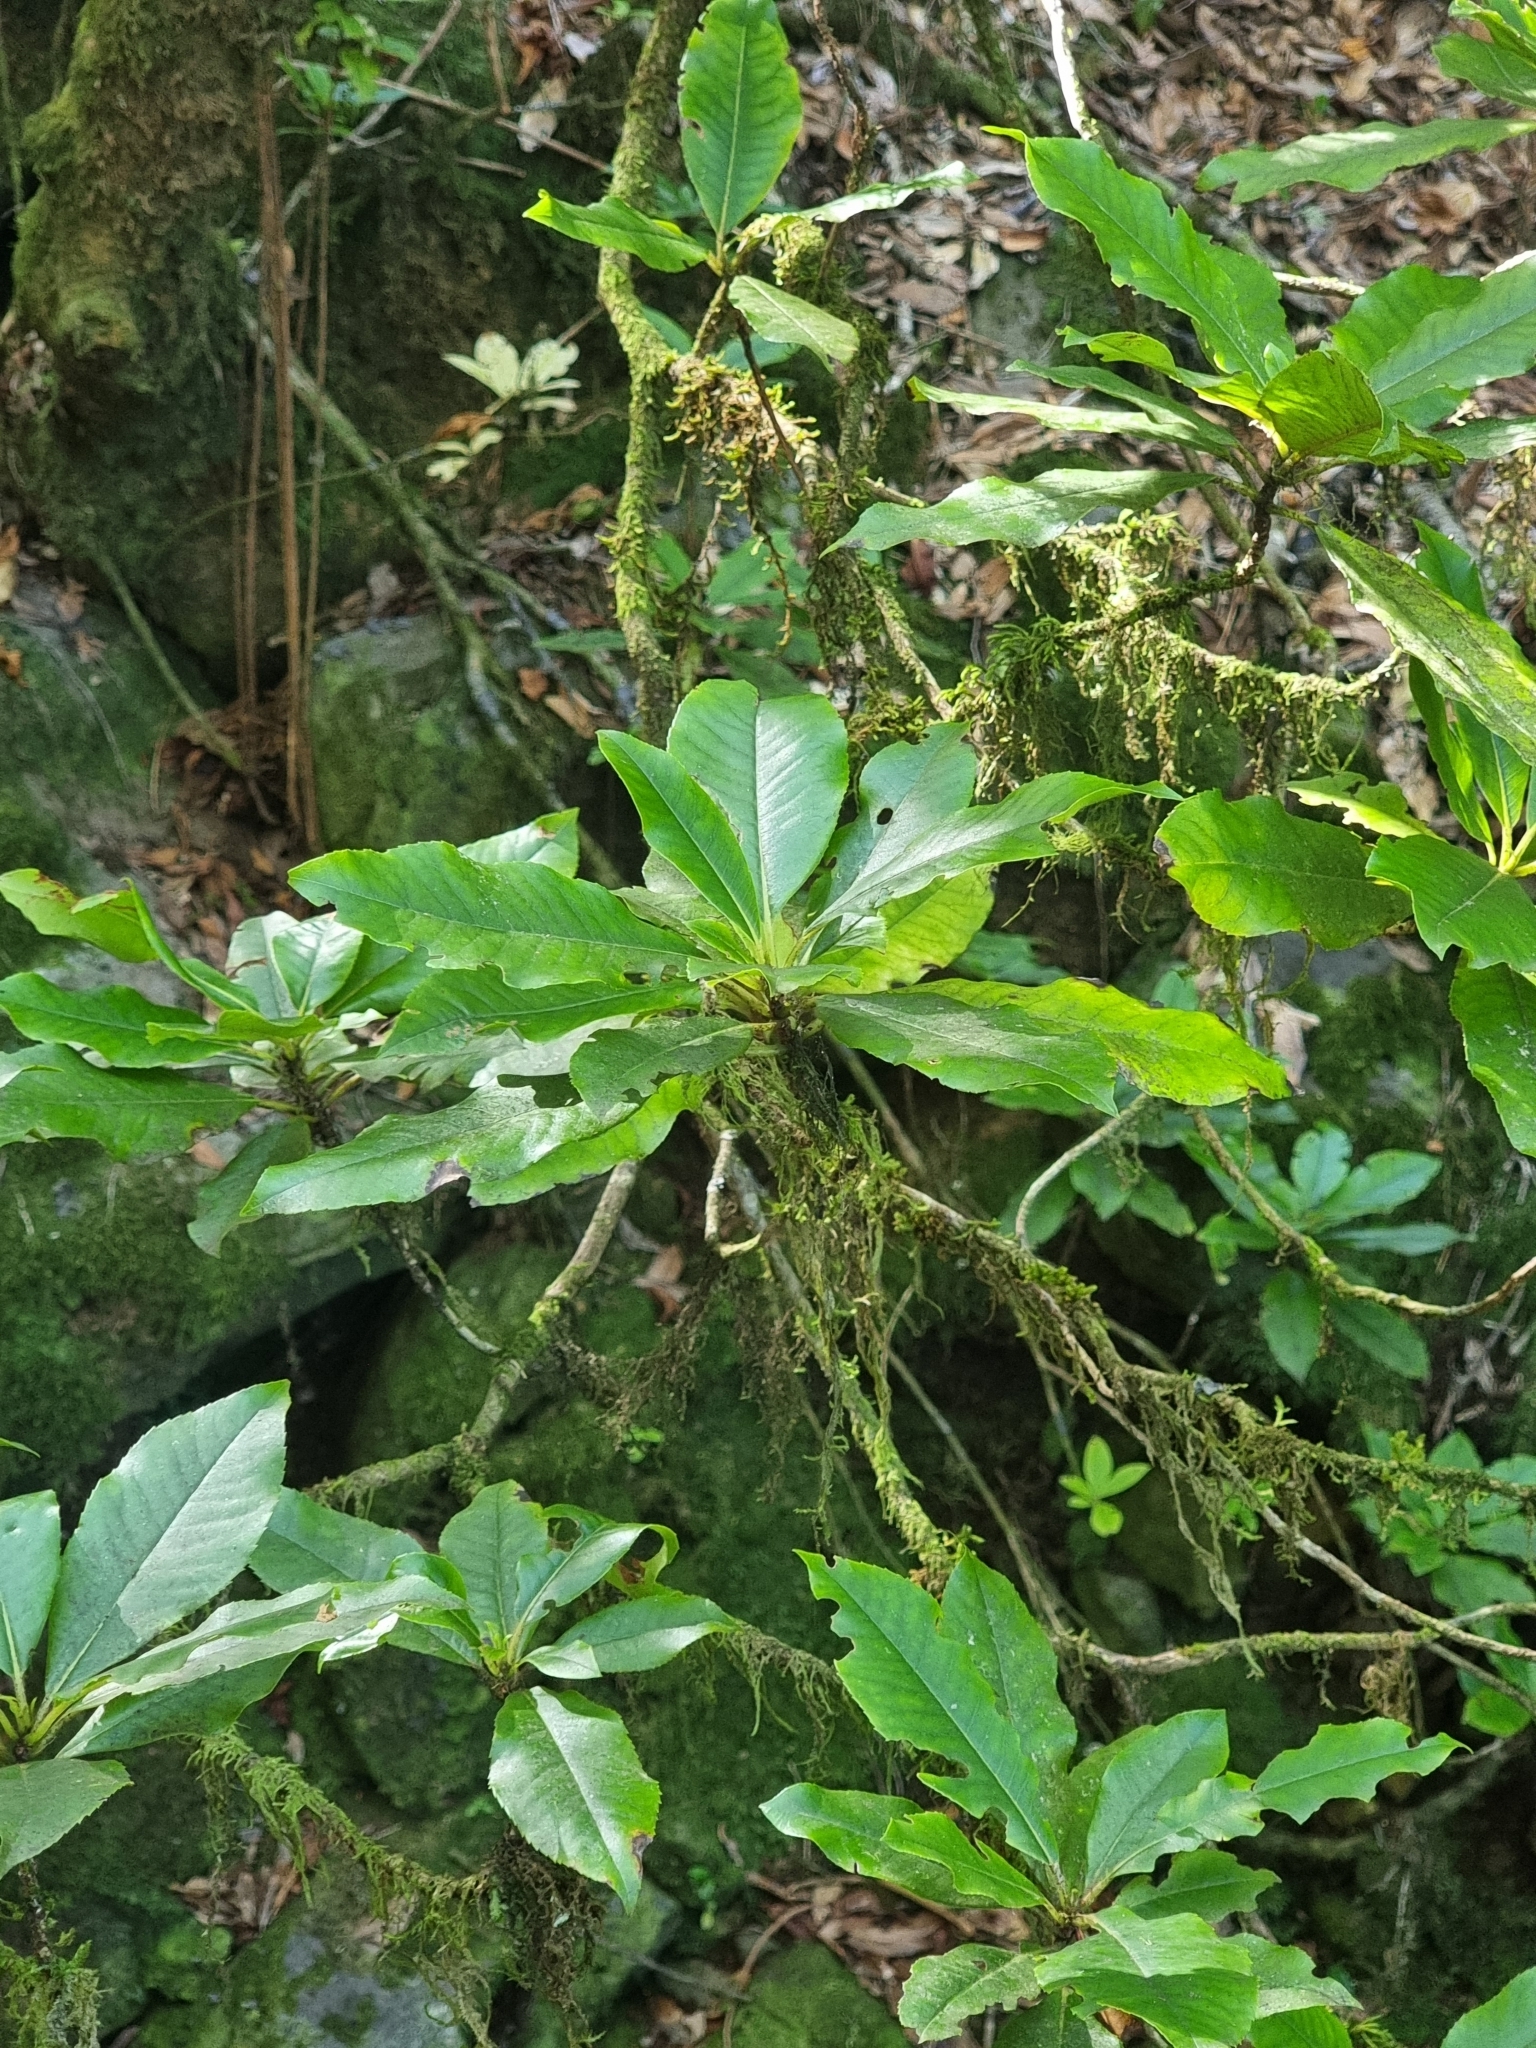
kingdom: Plantae
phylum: Tracheophyta
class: Magnoliopsida
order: Ericales
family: Clethraceae
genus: Clethra
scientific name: Clethra arborea
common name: Lily-of-the-valley-tree
